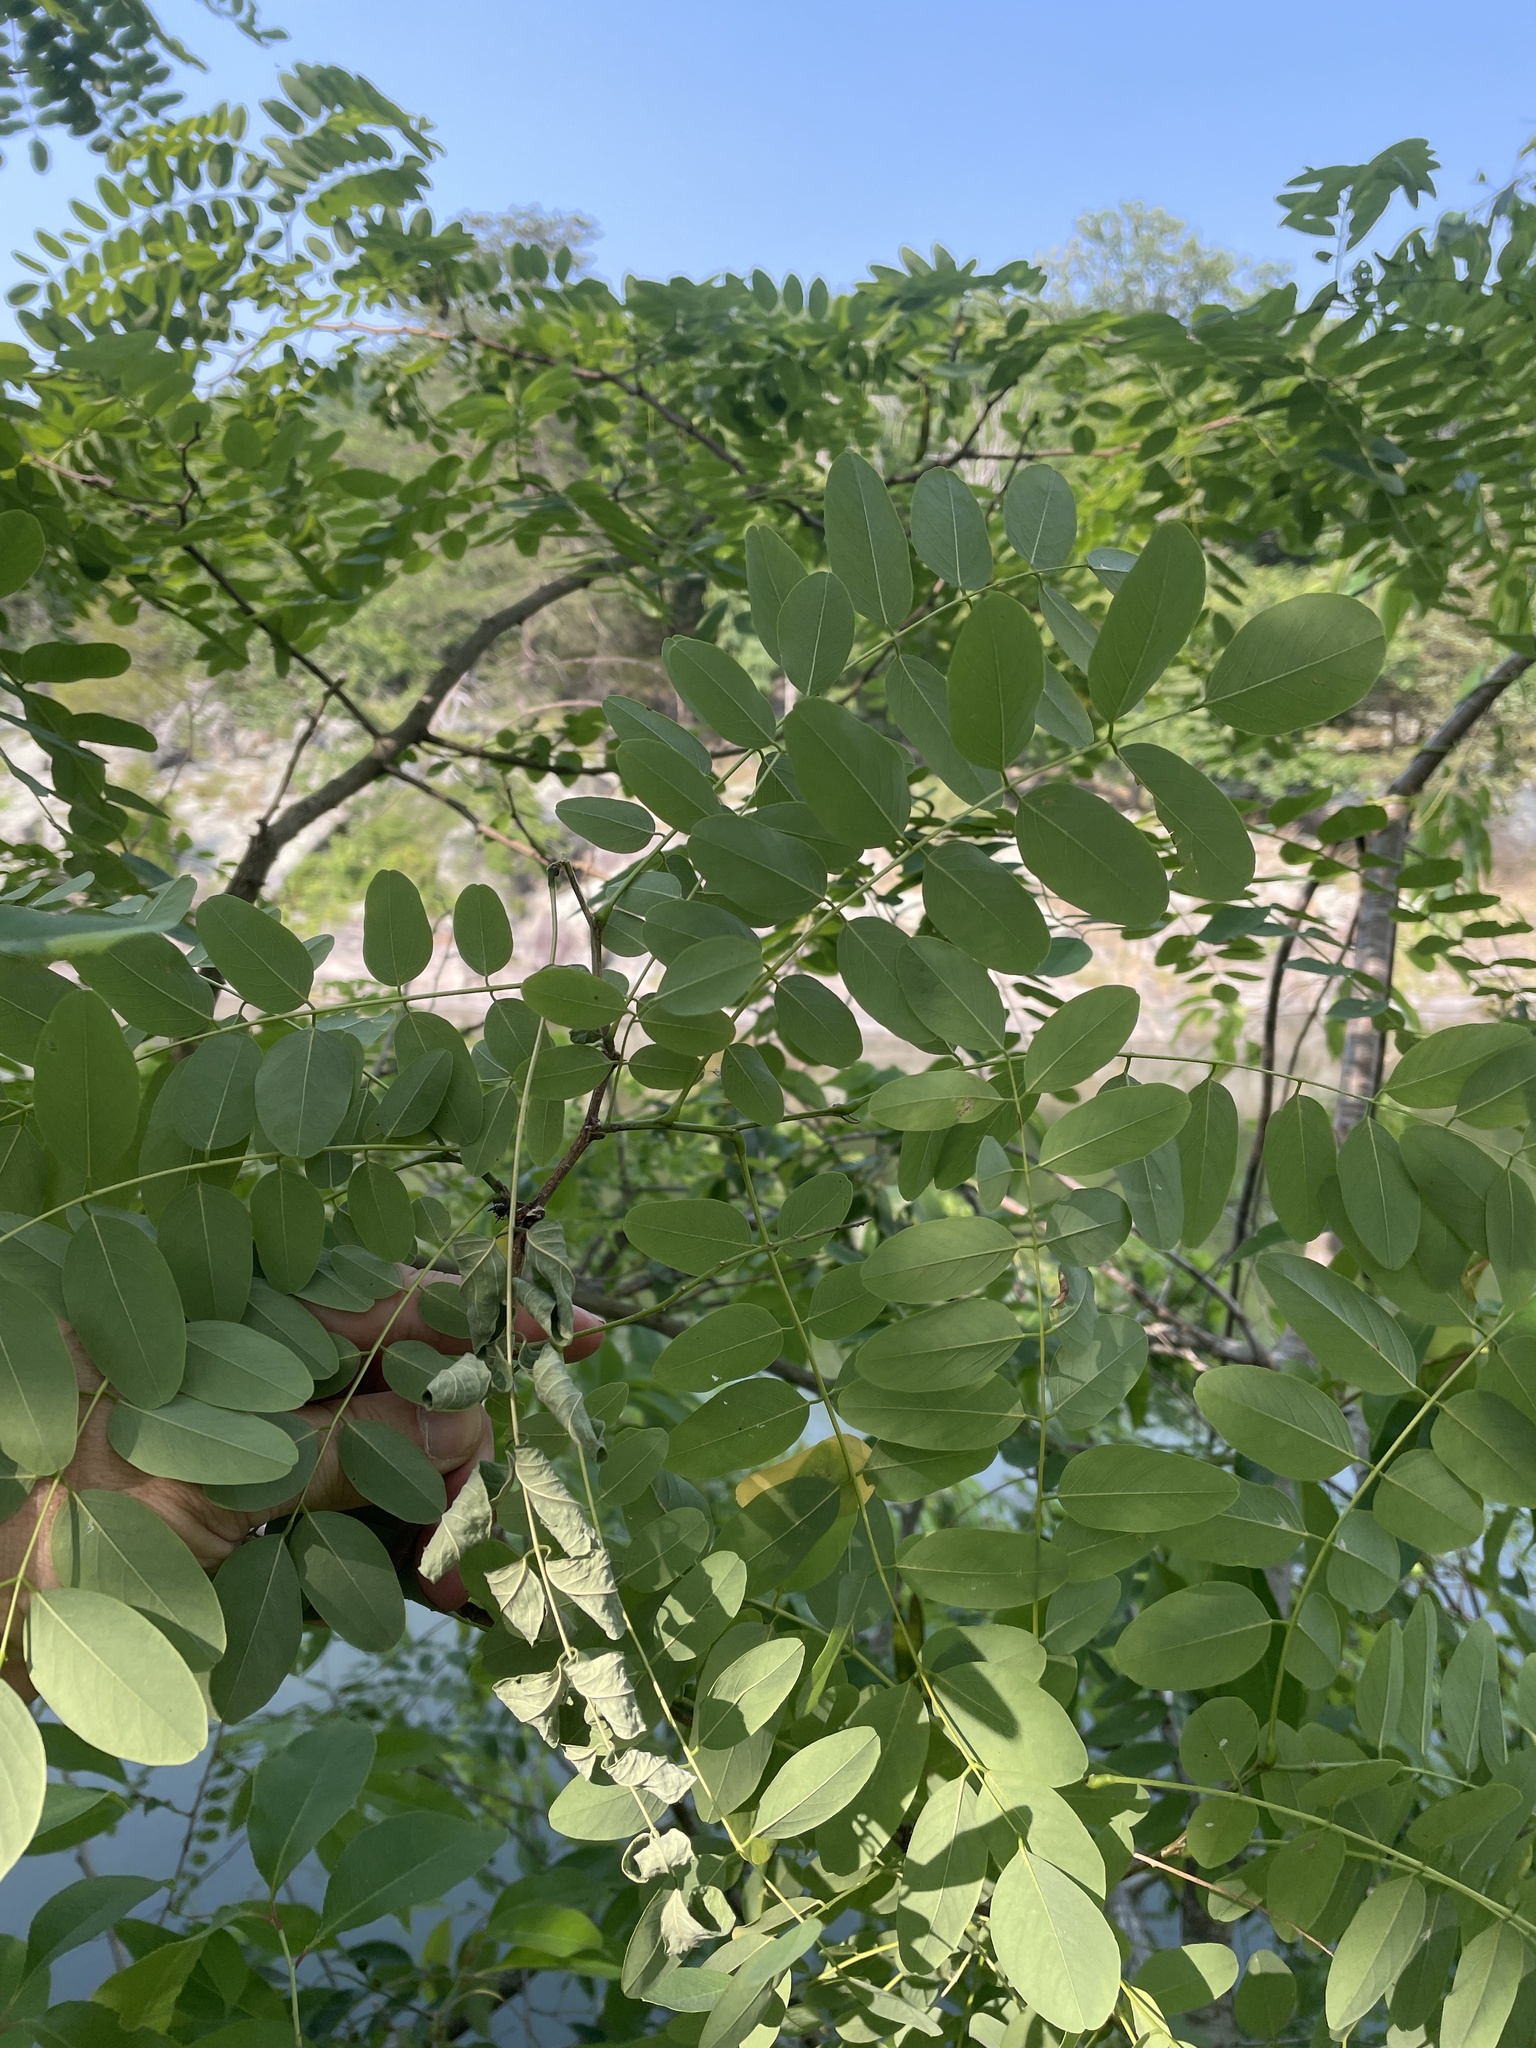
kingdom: Plantae
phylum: Tracheophyta
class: Magnoliopsida
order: Fabales
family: Fabaceae
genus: Robinia
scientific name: Robinia pseudoacacia
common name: Black locust
